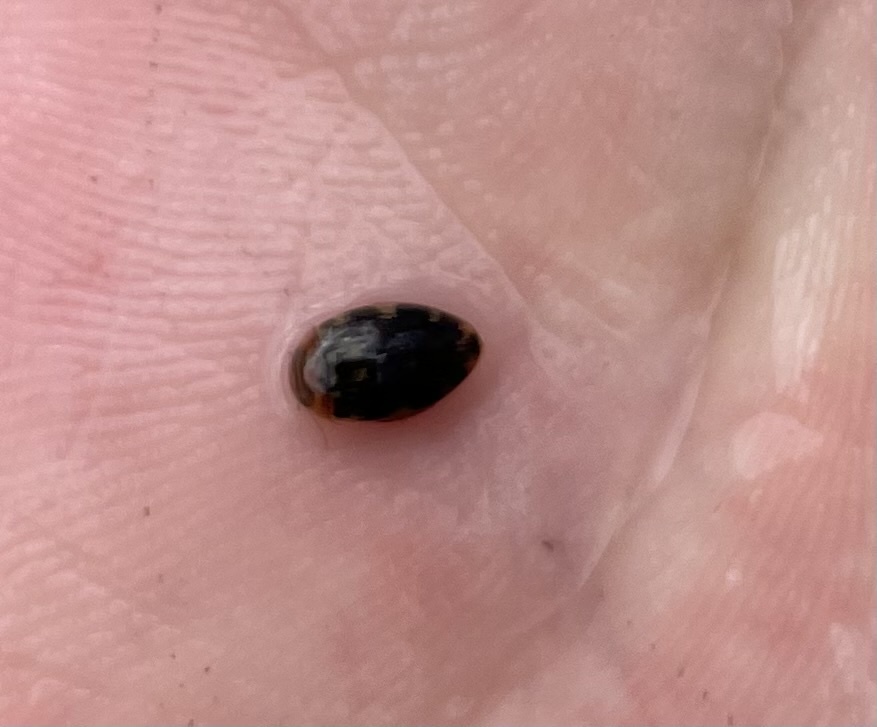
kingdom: Animalia
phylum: Arthropoda
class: Insecta
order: Coleoptera
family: Dytiscidae
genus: Laccophilus
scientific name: Laccophilus maculosus
